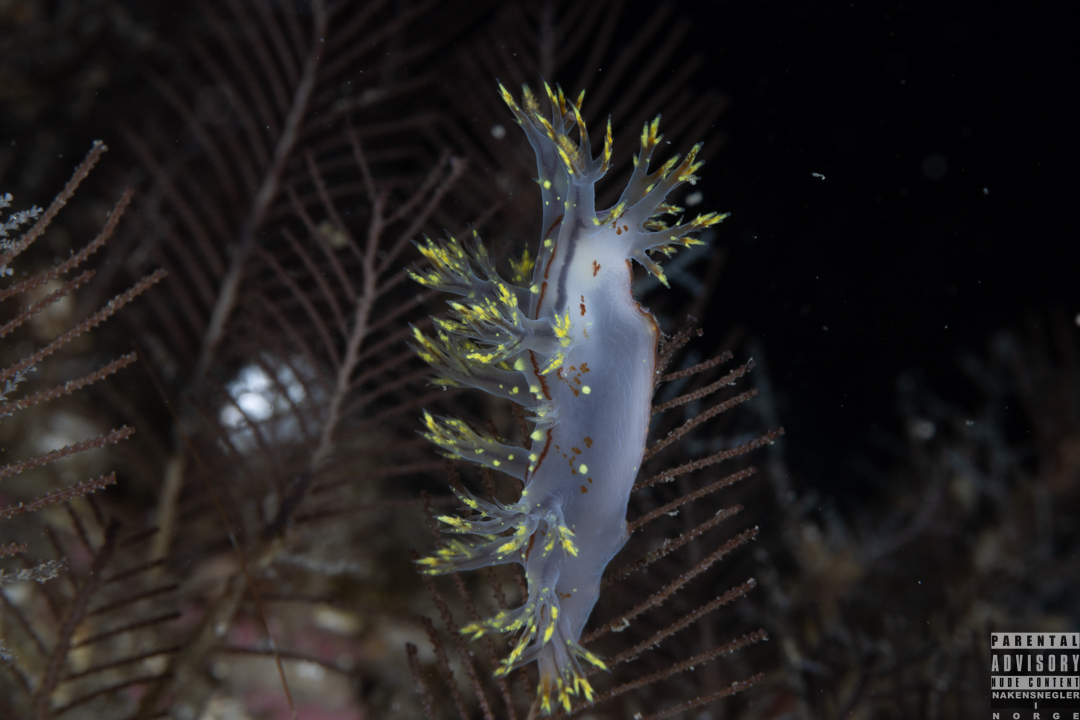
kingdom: Animalia
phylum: Mollusca
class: Gastropoda
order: Nudibranchia
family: Dendronotidae
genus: Dendronotus
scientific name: Dendronotus yrjargul
